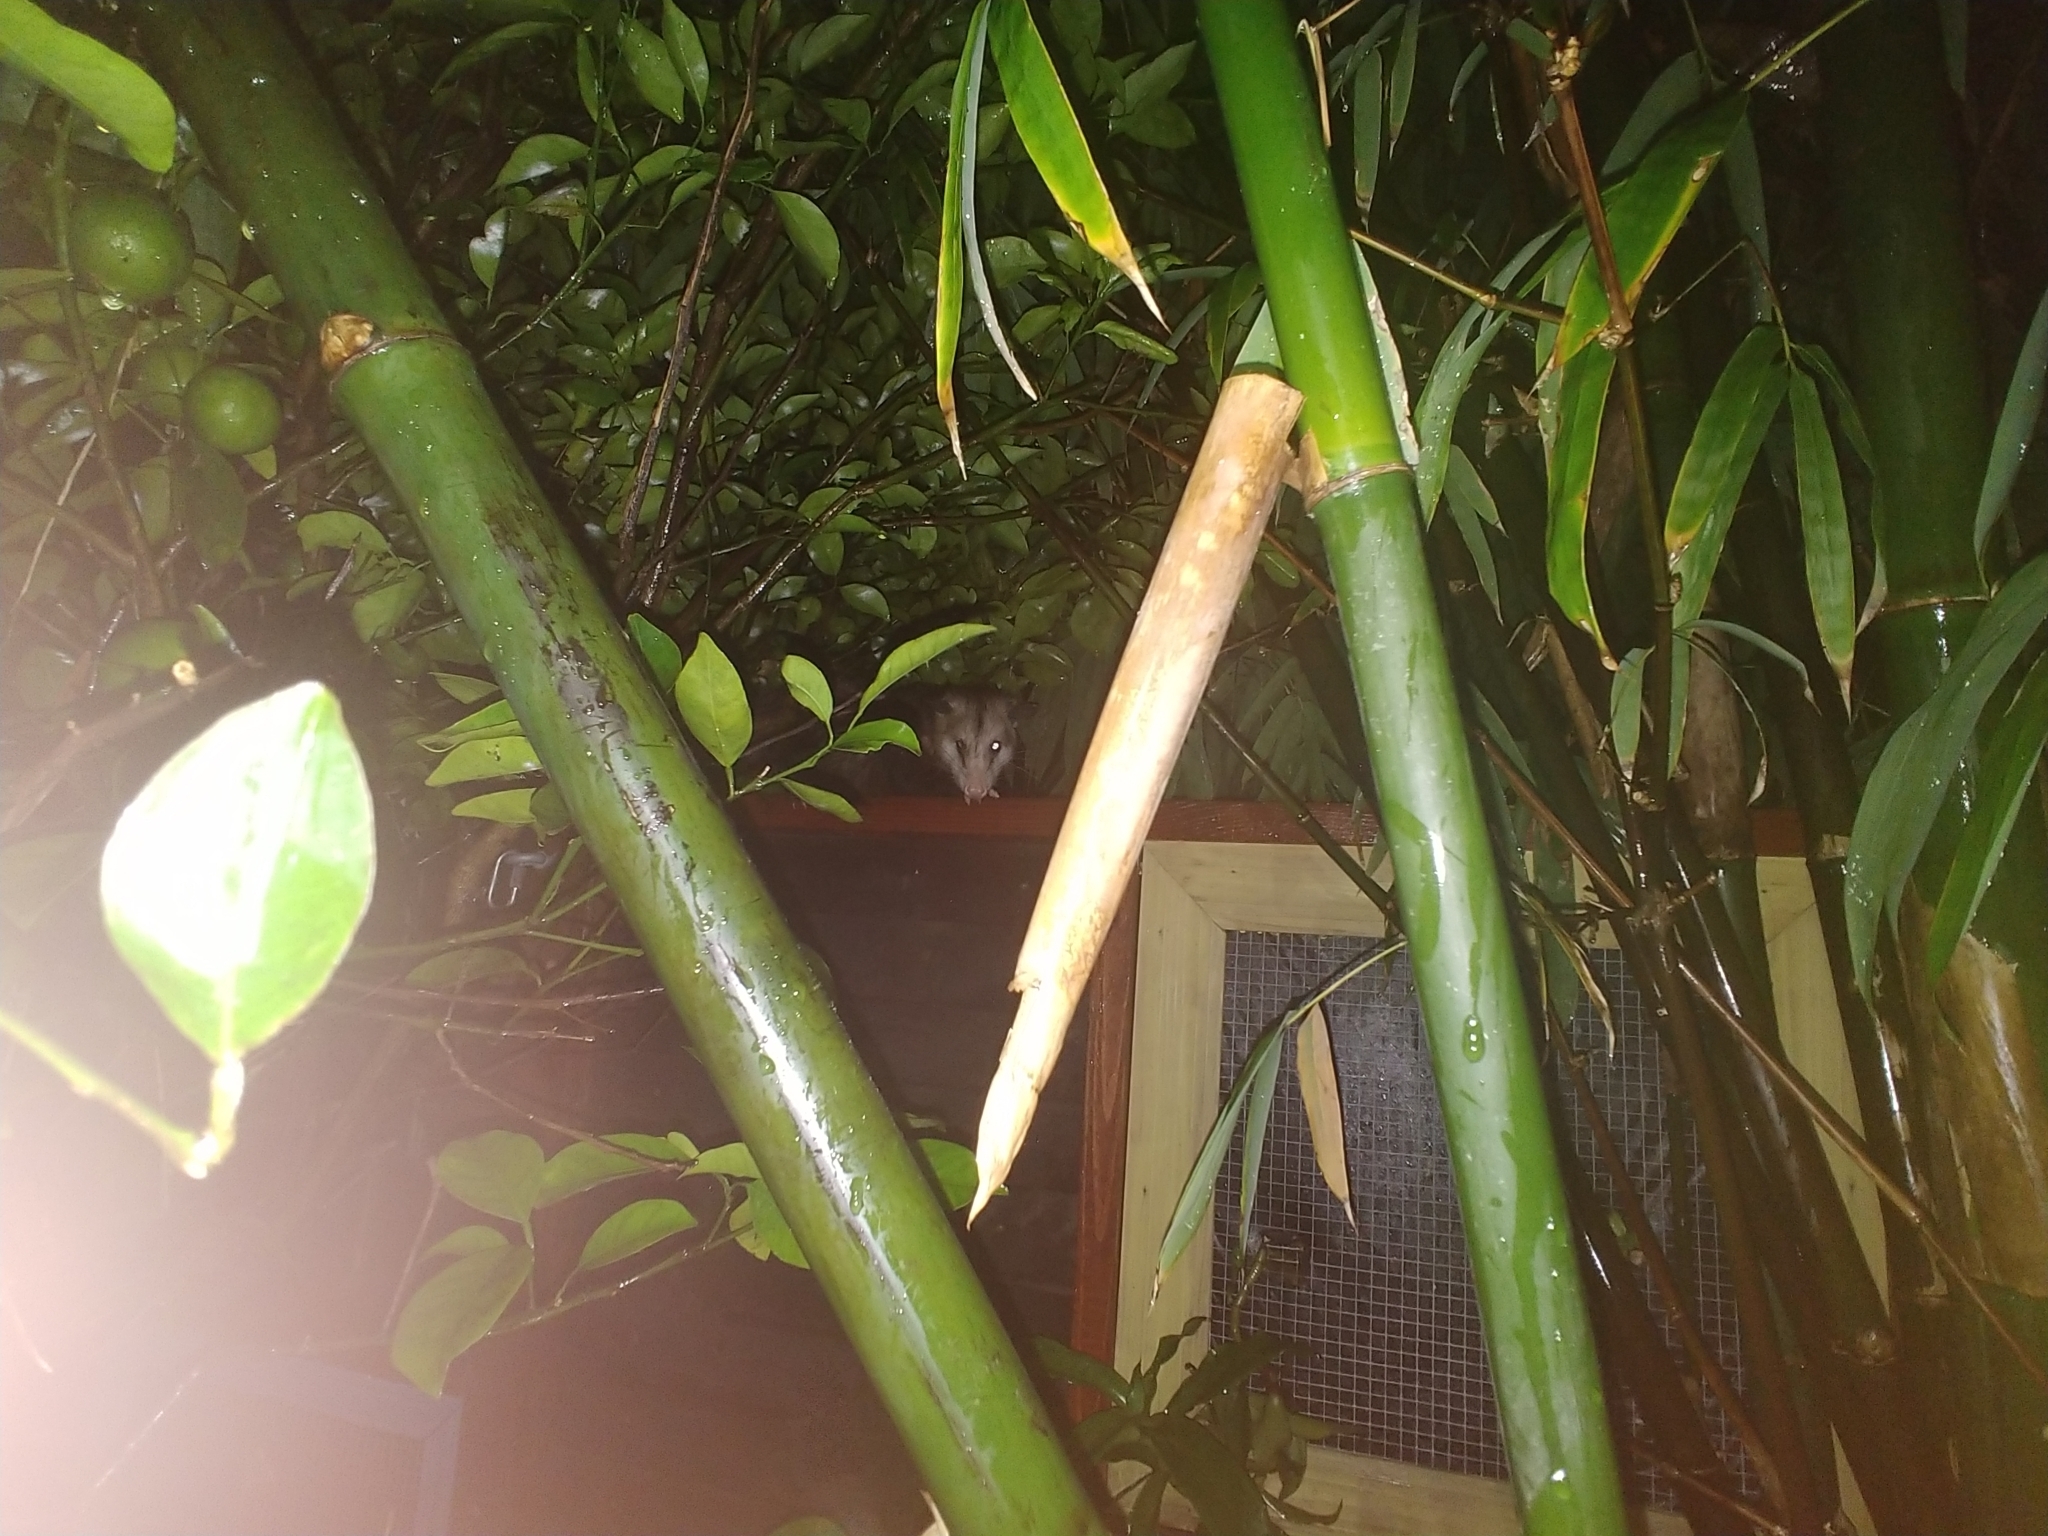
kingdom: Animalia
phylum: Chordata
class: Mammalia
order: Didelphimorphia
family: Didelphidae
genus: Didelphis
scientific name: Didelphis virginiana
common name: Virginia opossum
